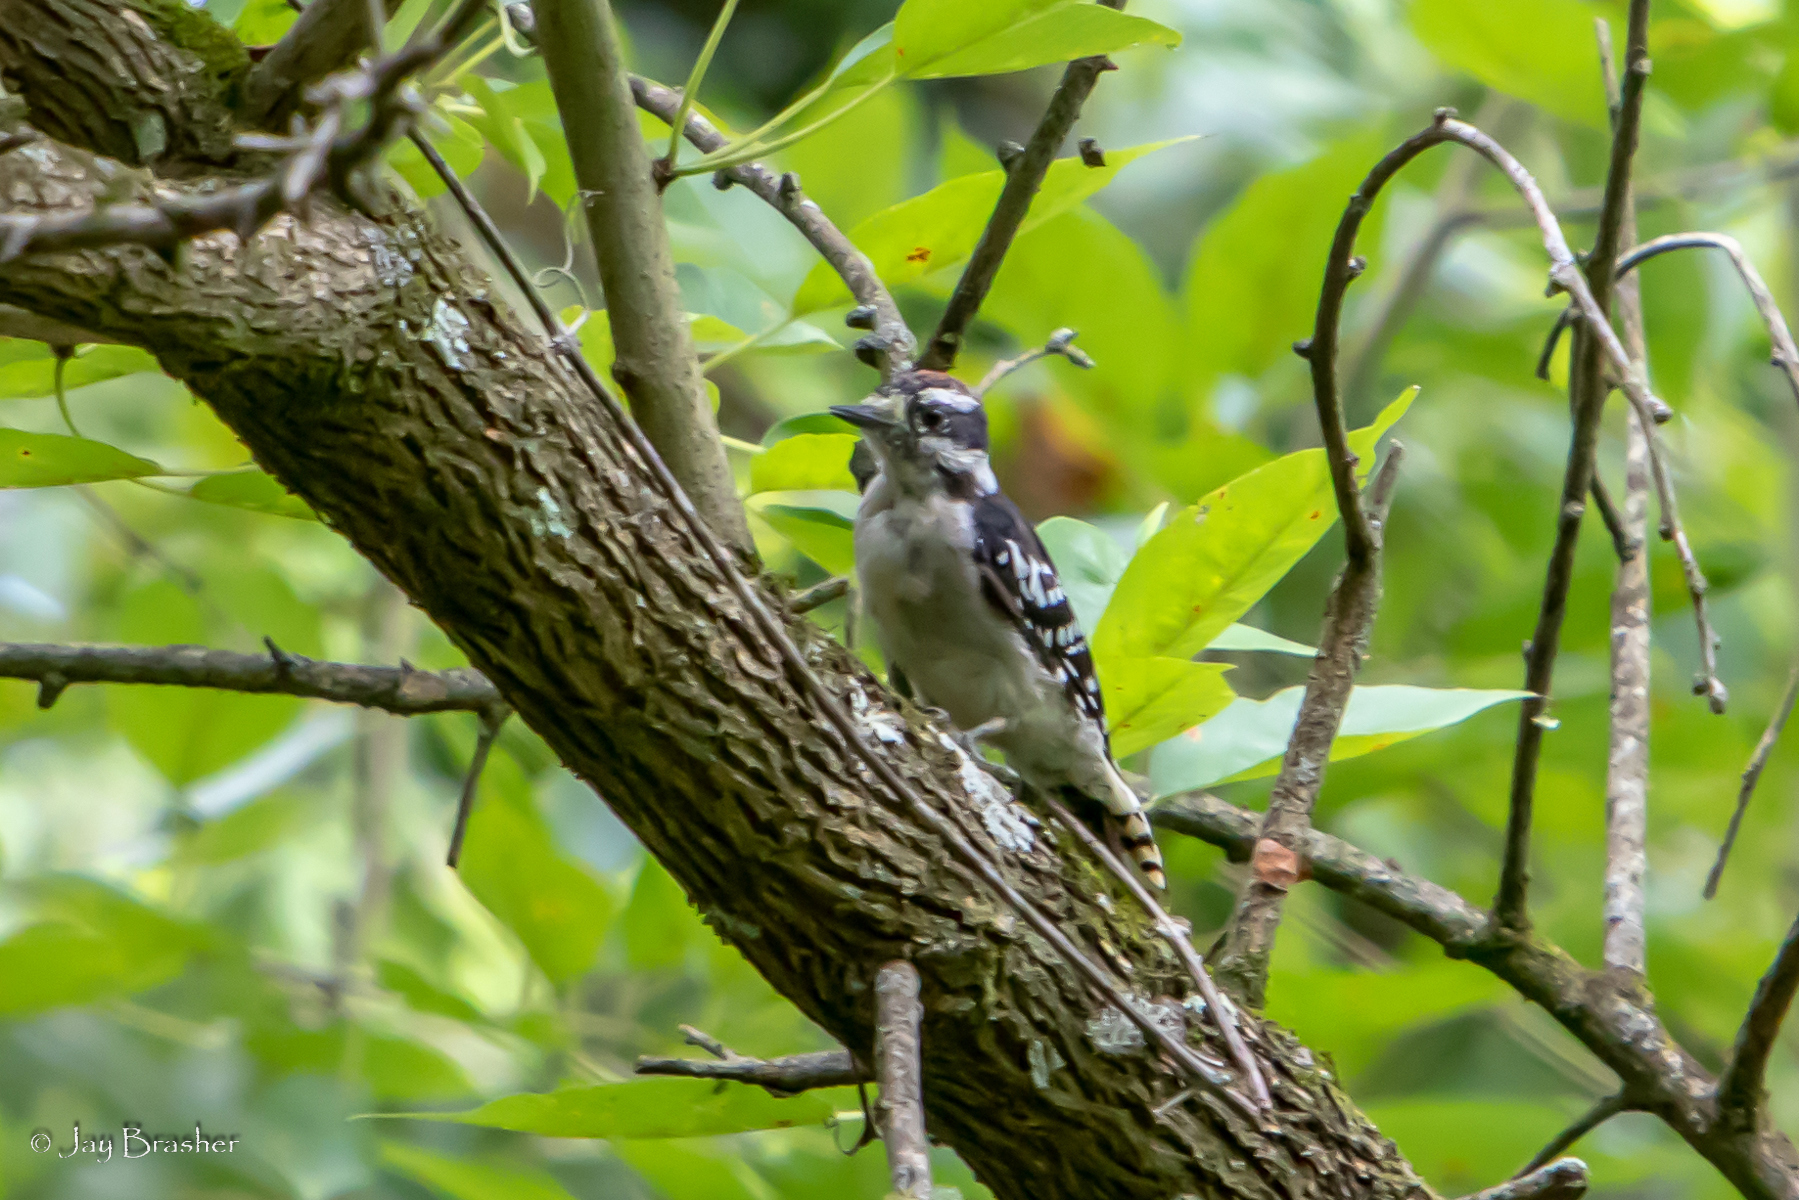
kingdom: Animalia
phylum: Chordata
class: Aves
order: Piciformes
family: Picidae
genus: Dryobates
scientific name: Dryobates pubescens
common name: Downy woodpecker
